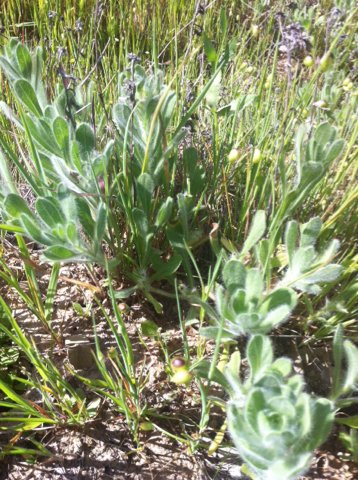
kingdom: Plantae
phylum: Tracheophyta
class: Magnoliopsida
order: Asterales
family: Asteraceae
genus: Heterotheca
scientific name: Heterotheca bolanderi
